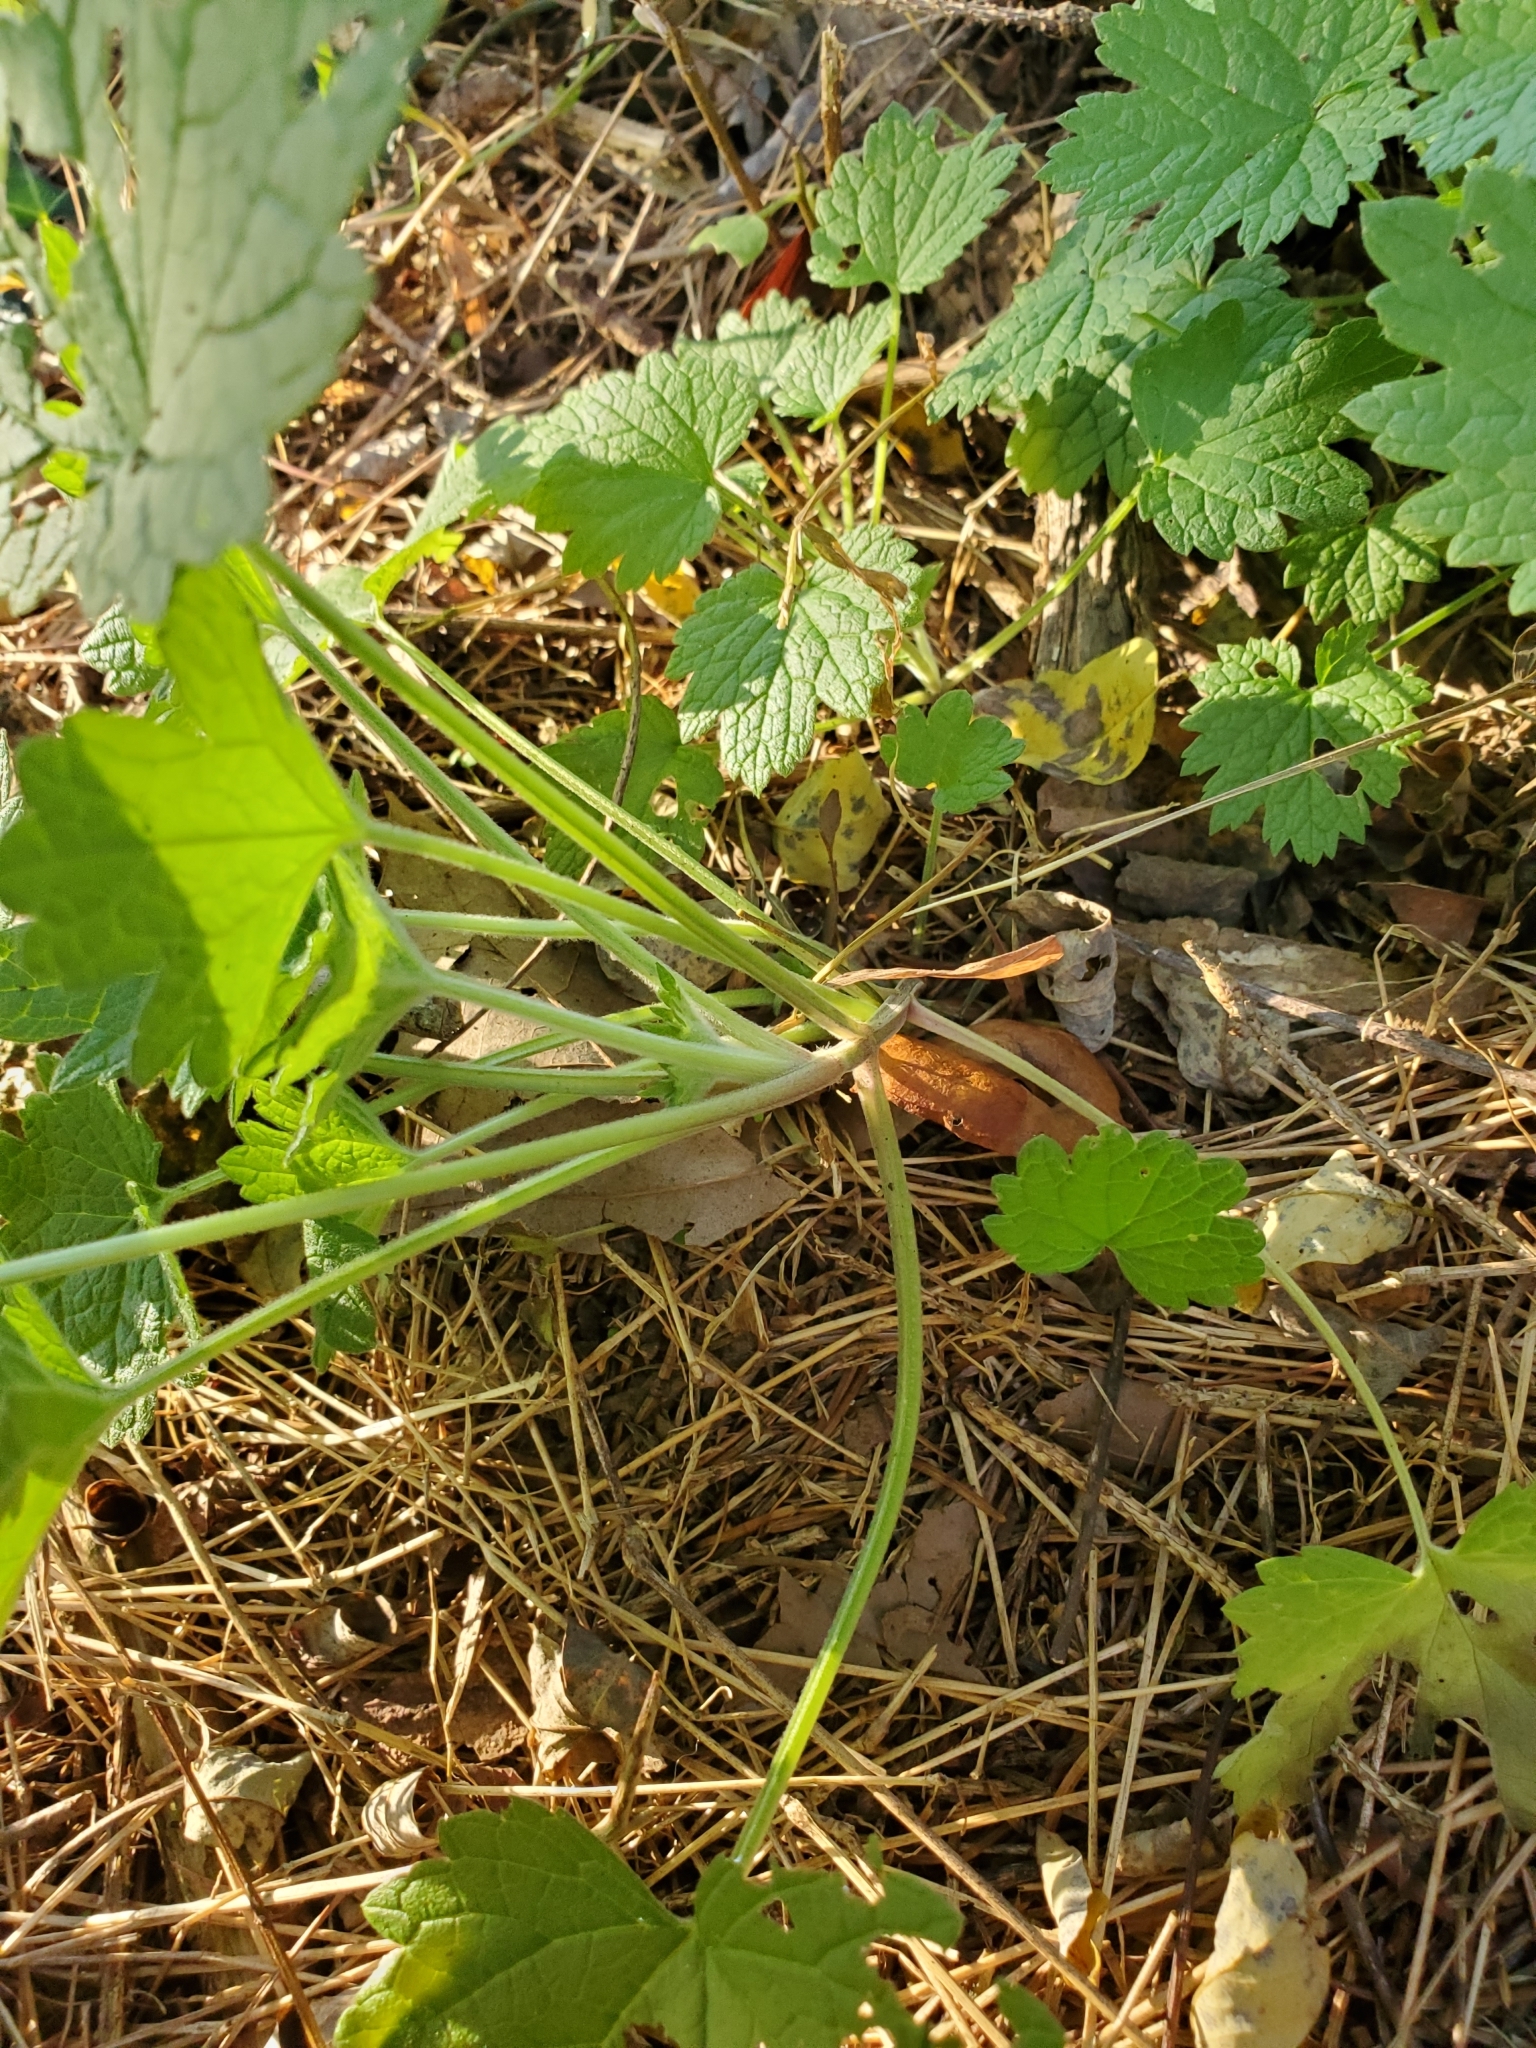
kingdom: Plantae
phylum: Tracheophyta
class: Magnoliopsida
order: Lamiales
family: Lamiaceae
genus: Leonurus
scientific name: Leonurus cardiaca
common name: Motherwort
